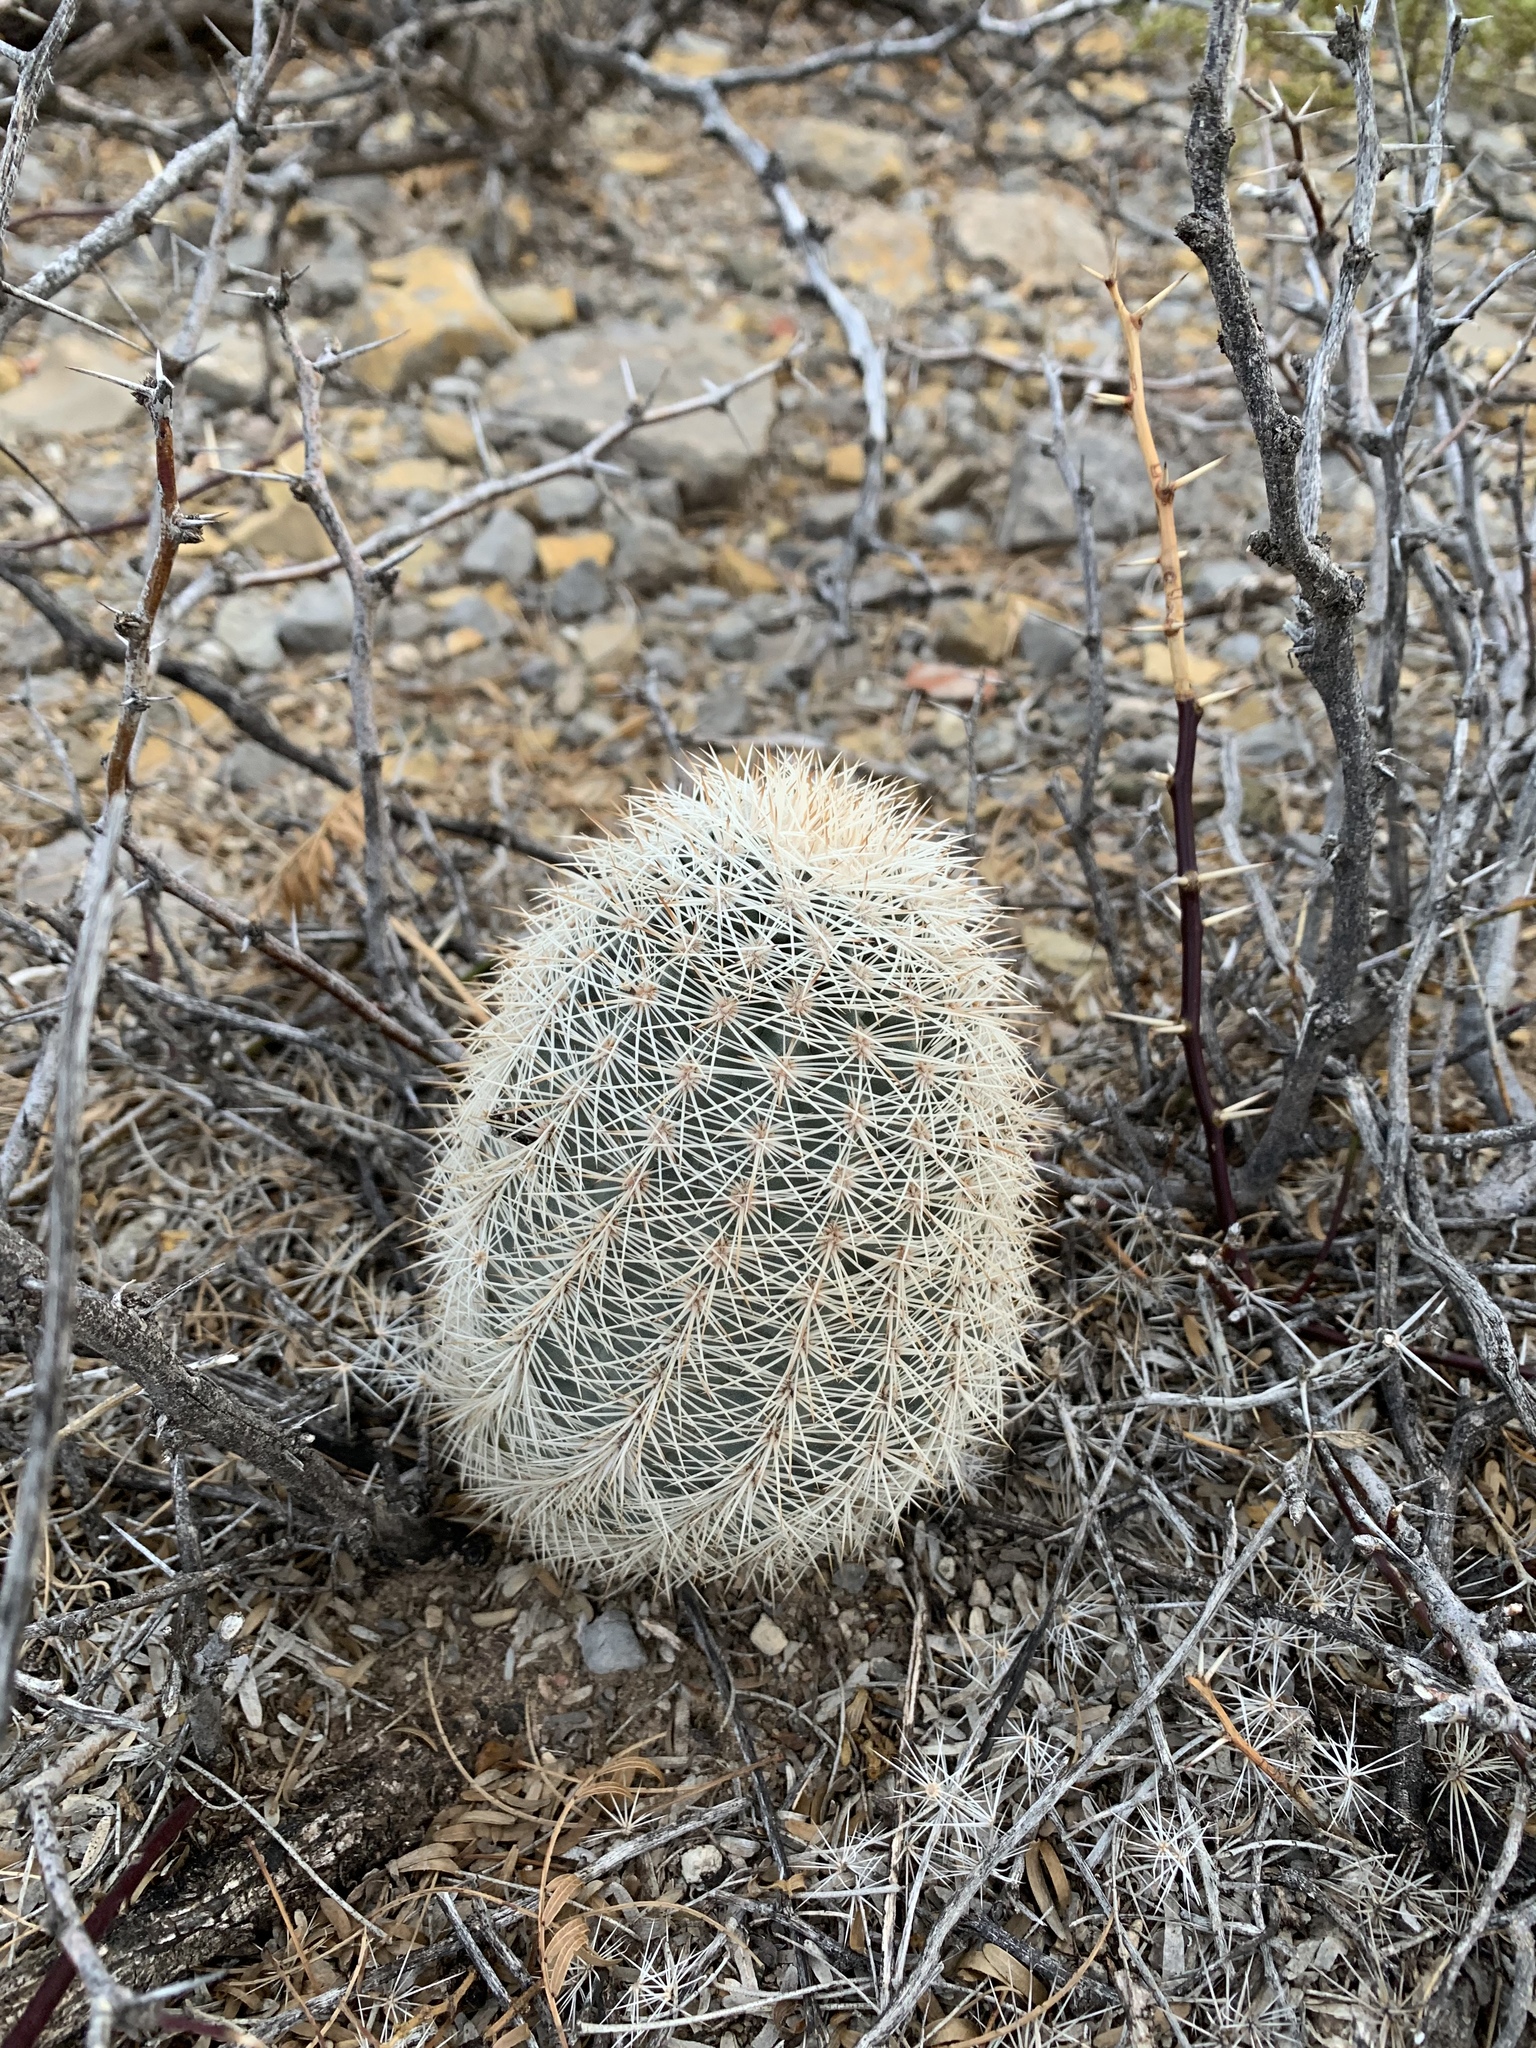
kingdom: Plantae
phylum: Tracheophyta
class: Magnoliopsida
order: Caryophyllales
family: Cactaceae
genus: Echinocereus
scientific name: Echinocereus dasyacanthus
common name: Spiny hedgehog cactus
